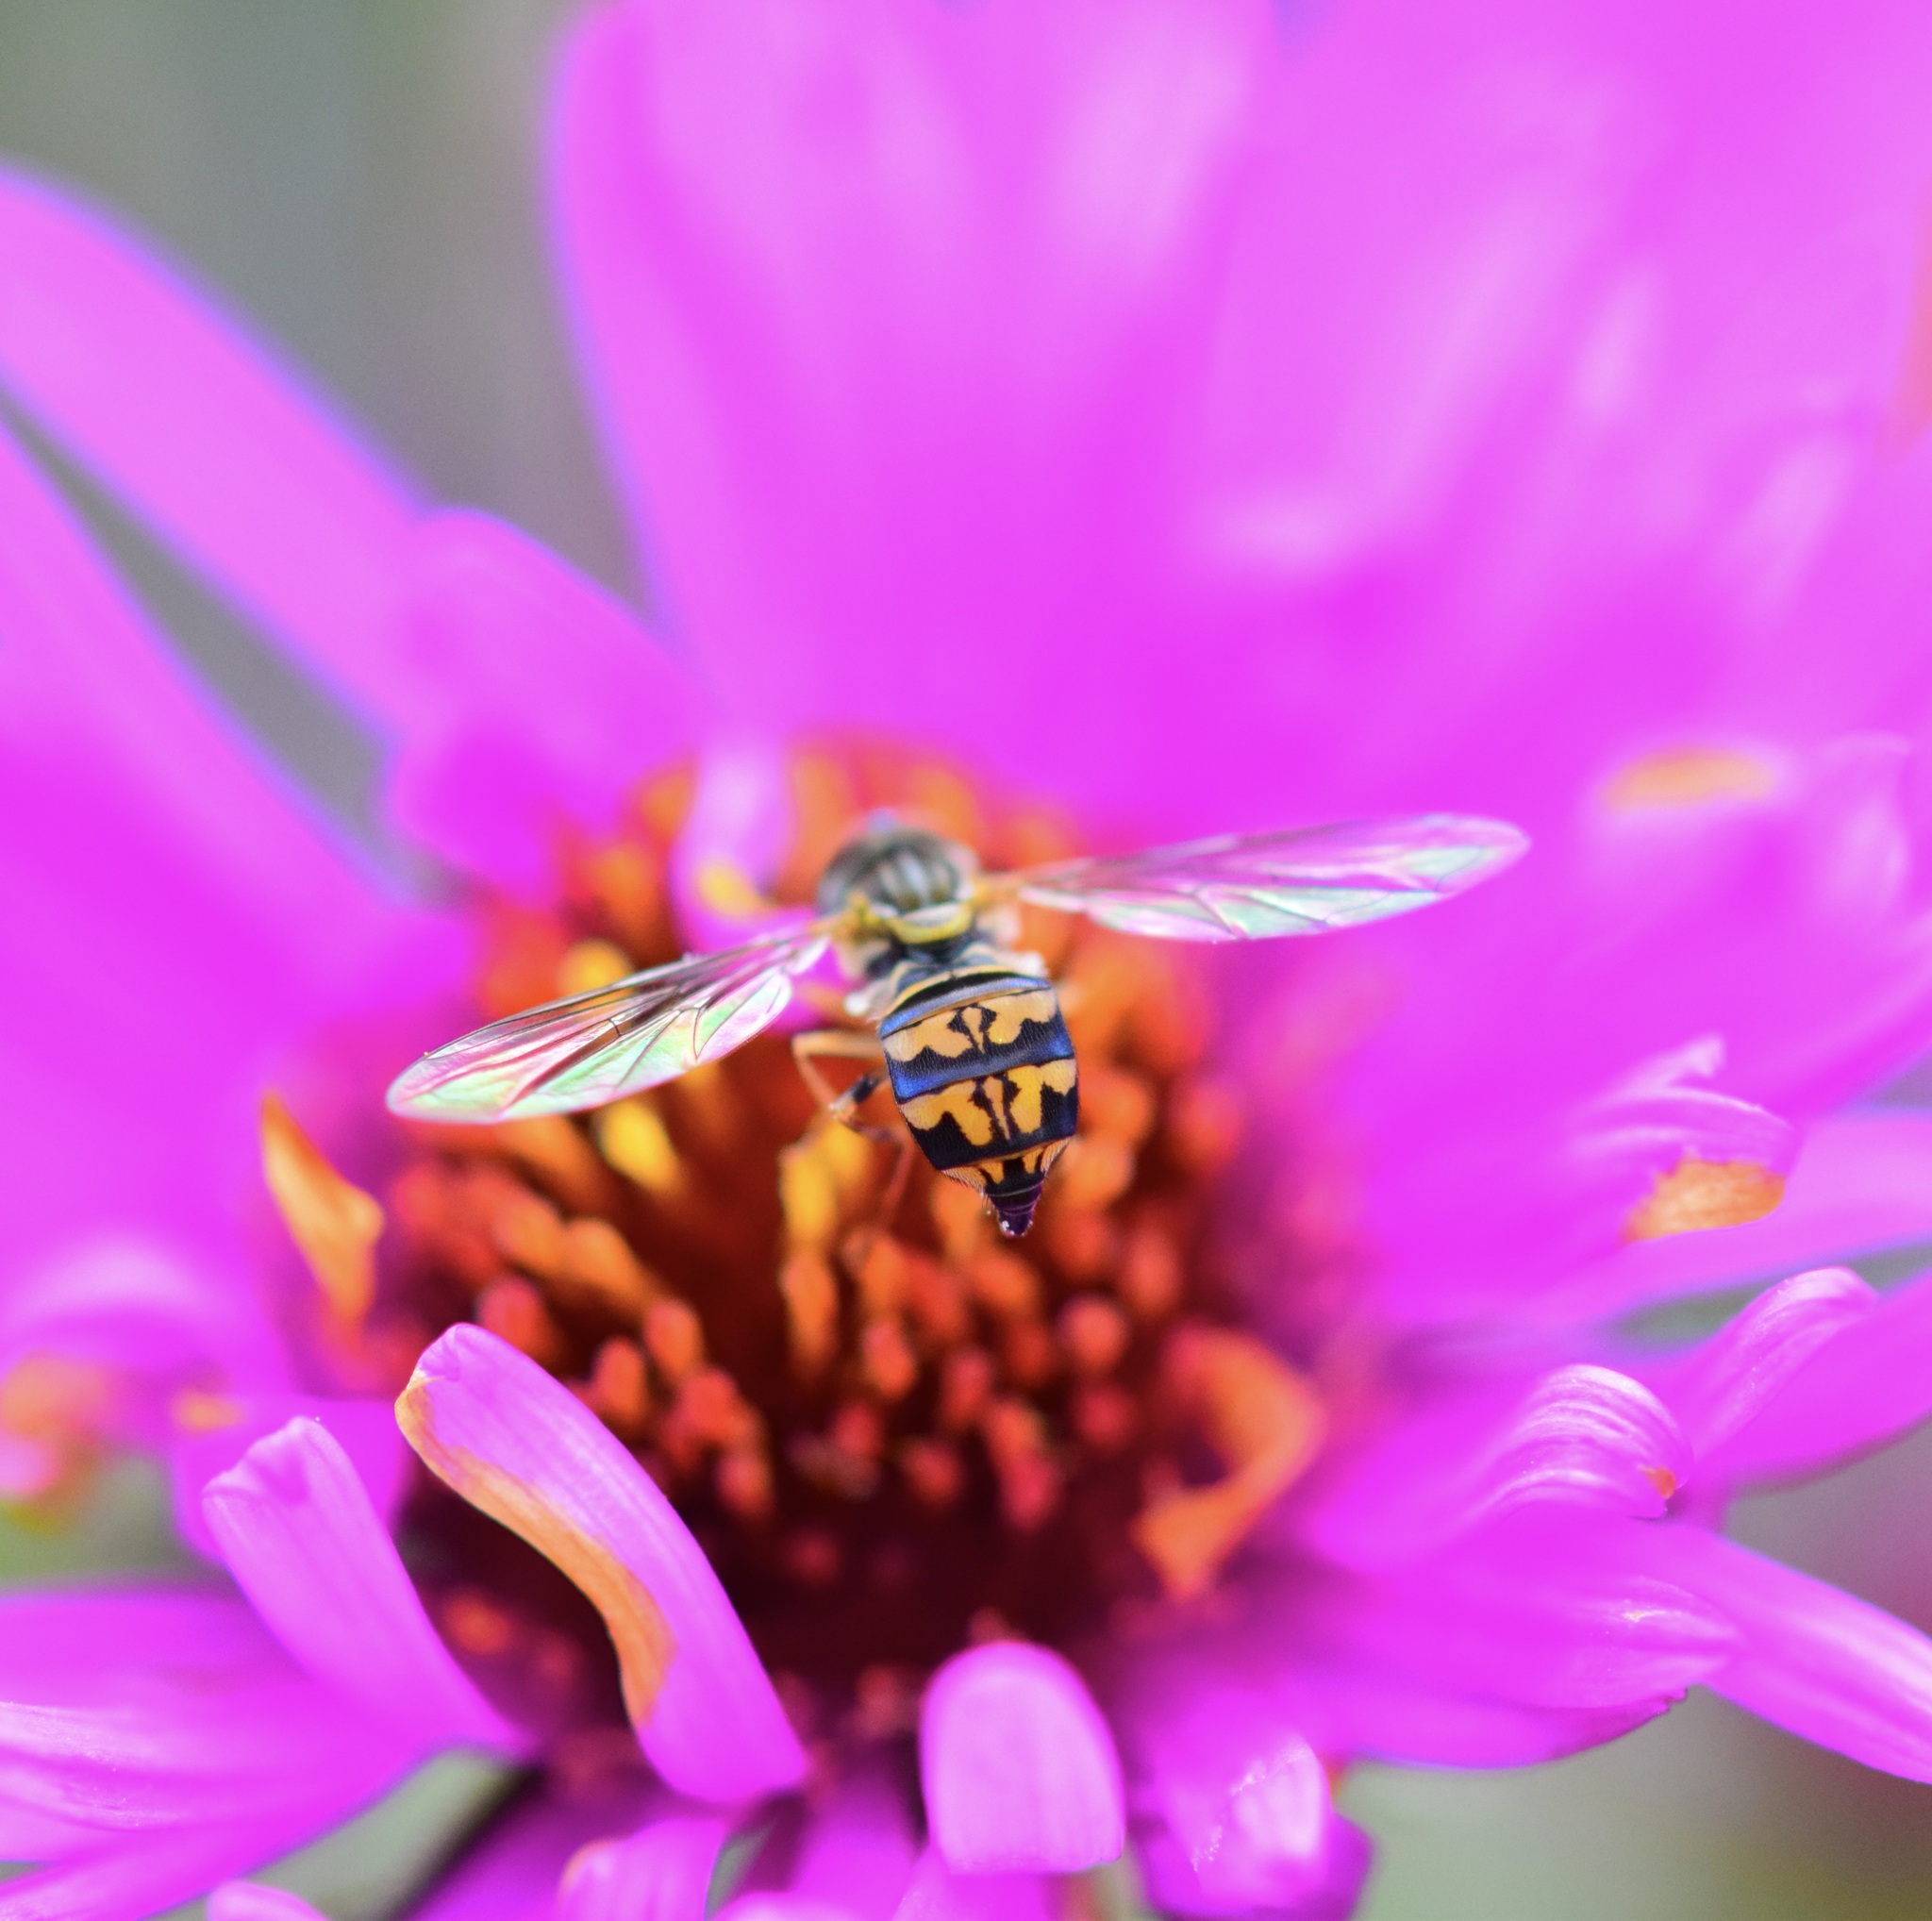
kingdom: Animalia
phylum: Arthropoda
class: Insecta
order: Diptera
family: Syrphidae
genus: Toxomerus
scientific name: Toxomerus geminatus
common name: Eastern calligrapher
